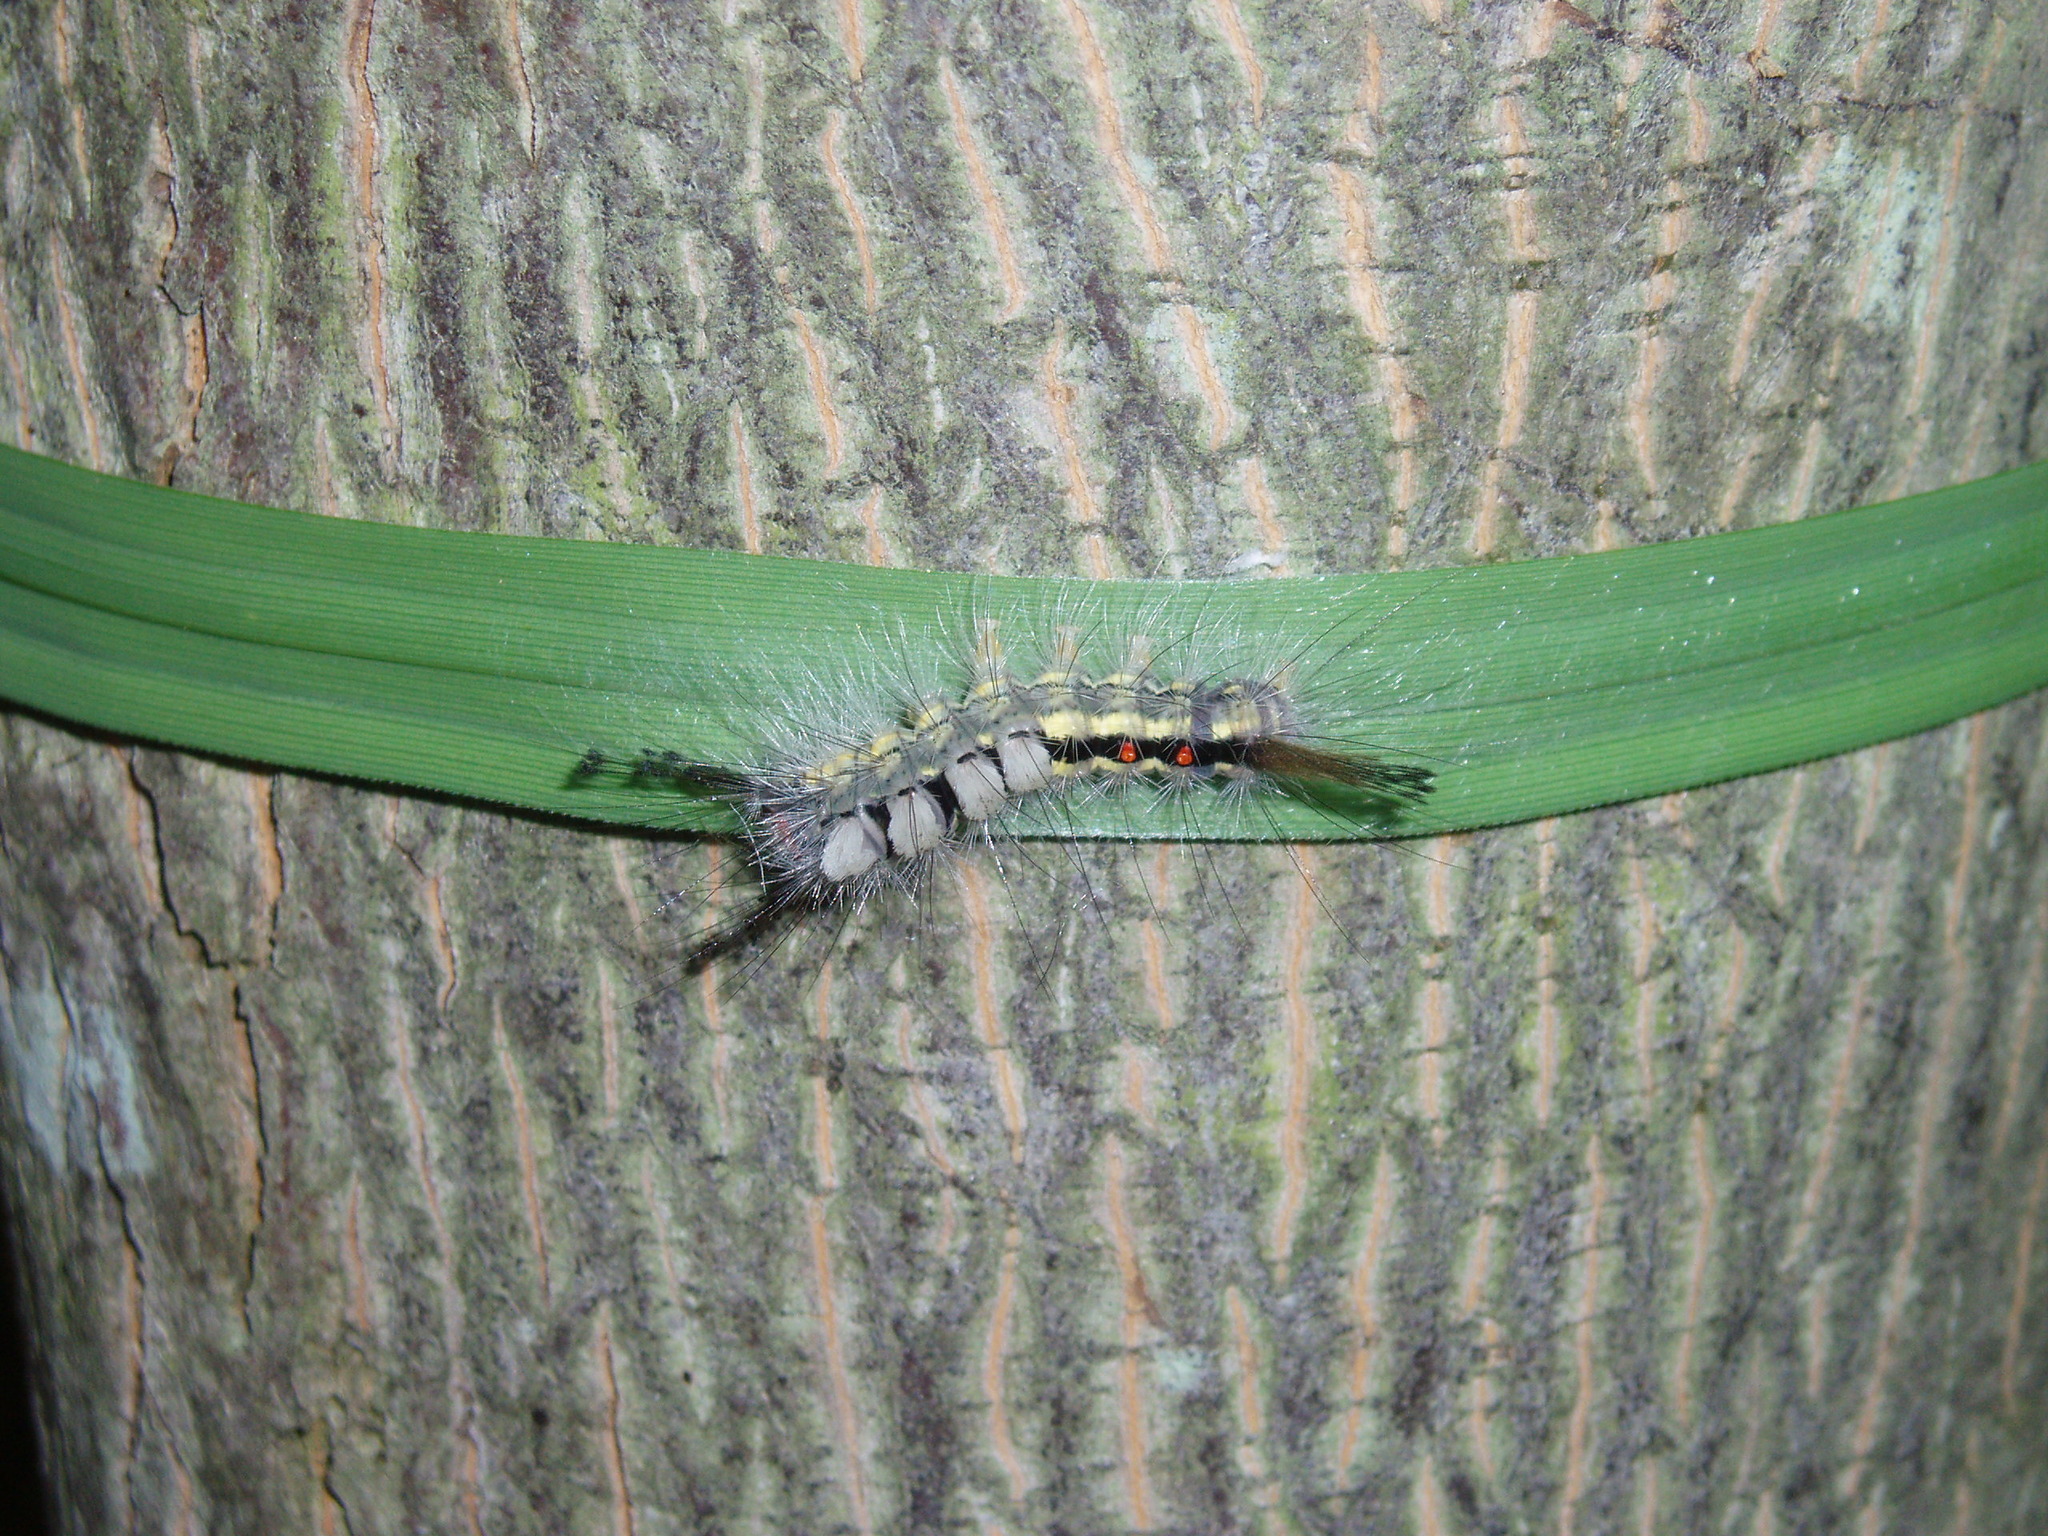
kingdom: Animalia
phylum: Arthropoda
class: Insecta
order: Lepidoptera
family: Erebidae
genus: Orgyia
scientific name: Orgyia leucostigma
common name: White-marked tussock moth
